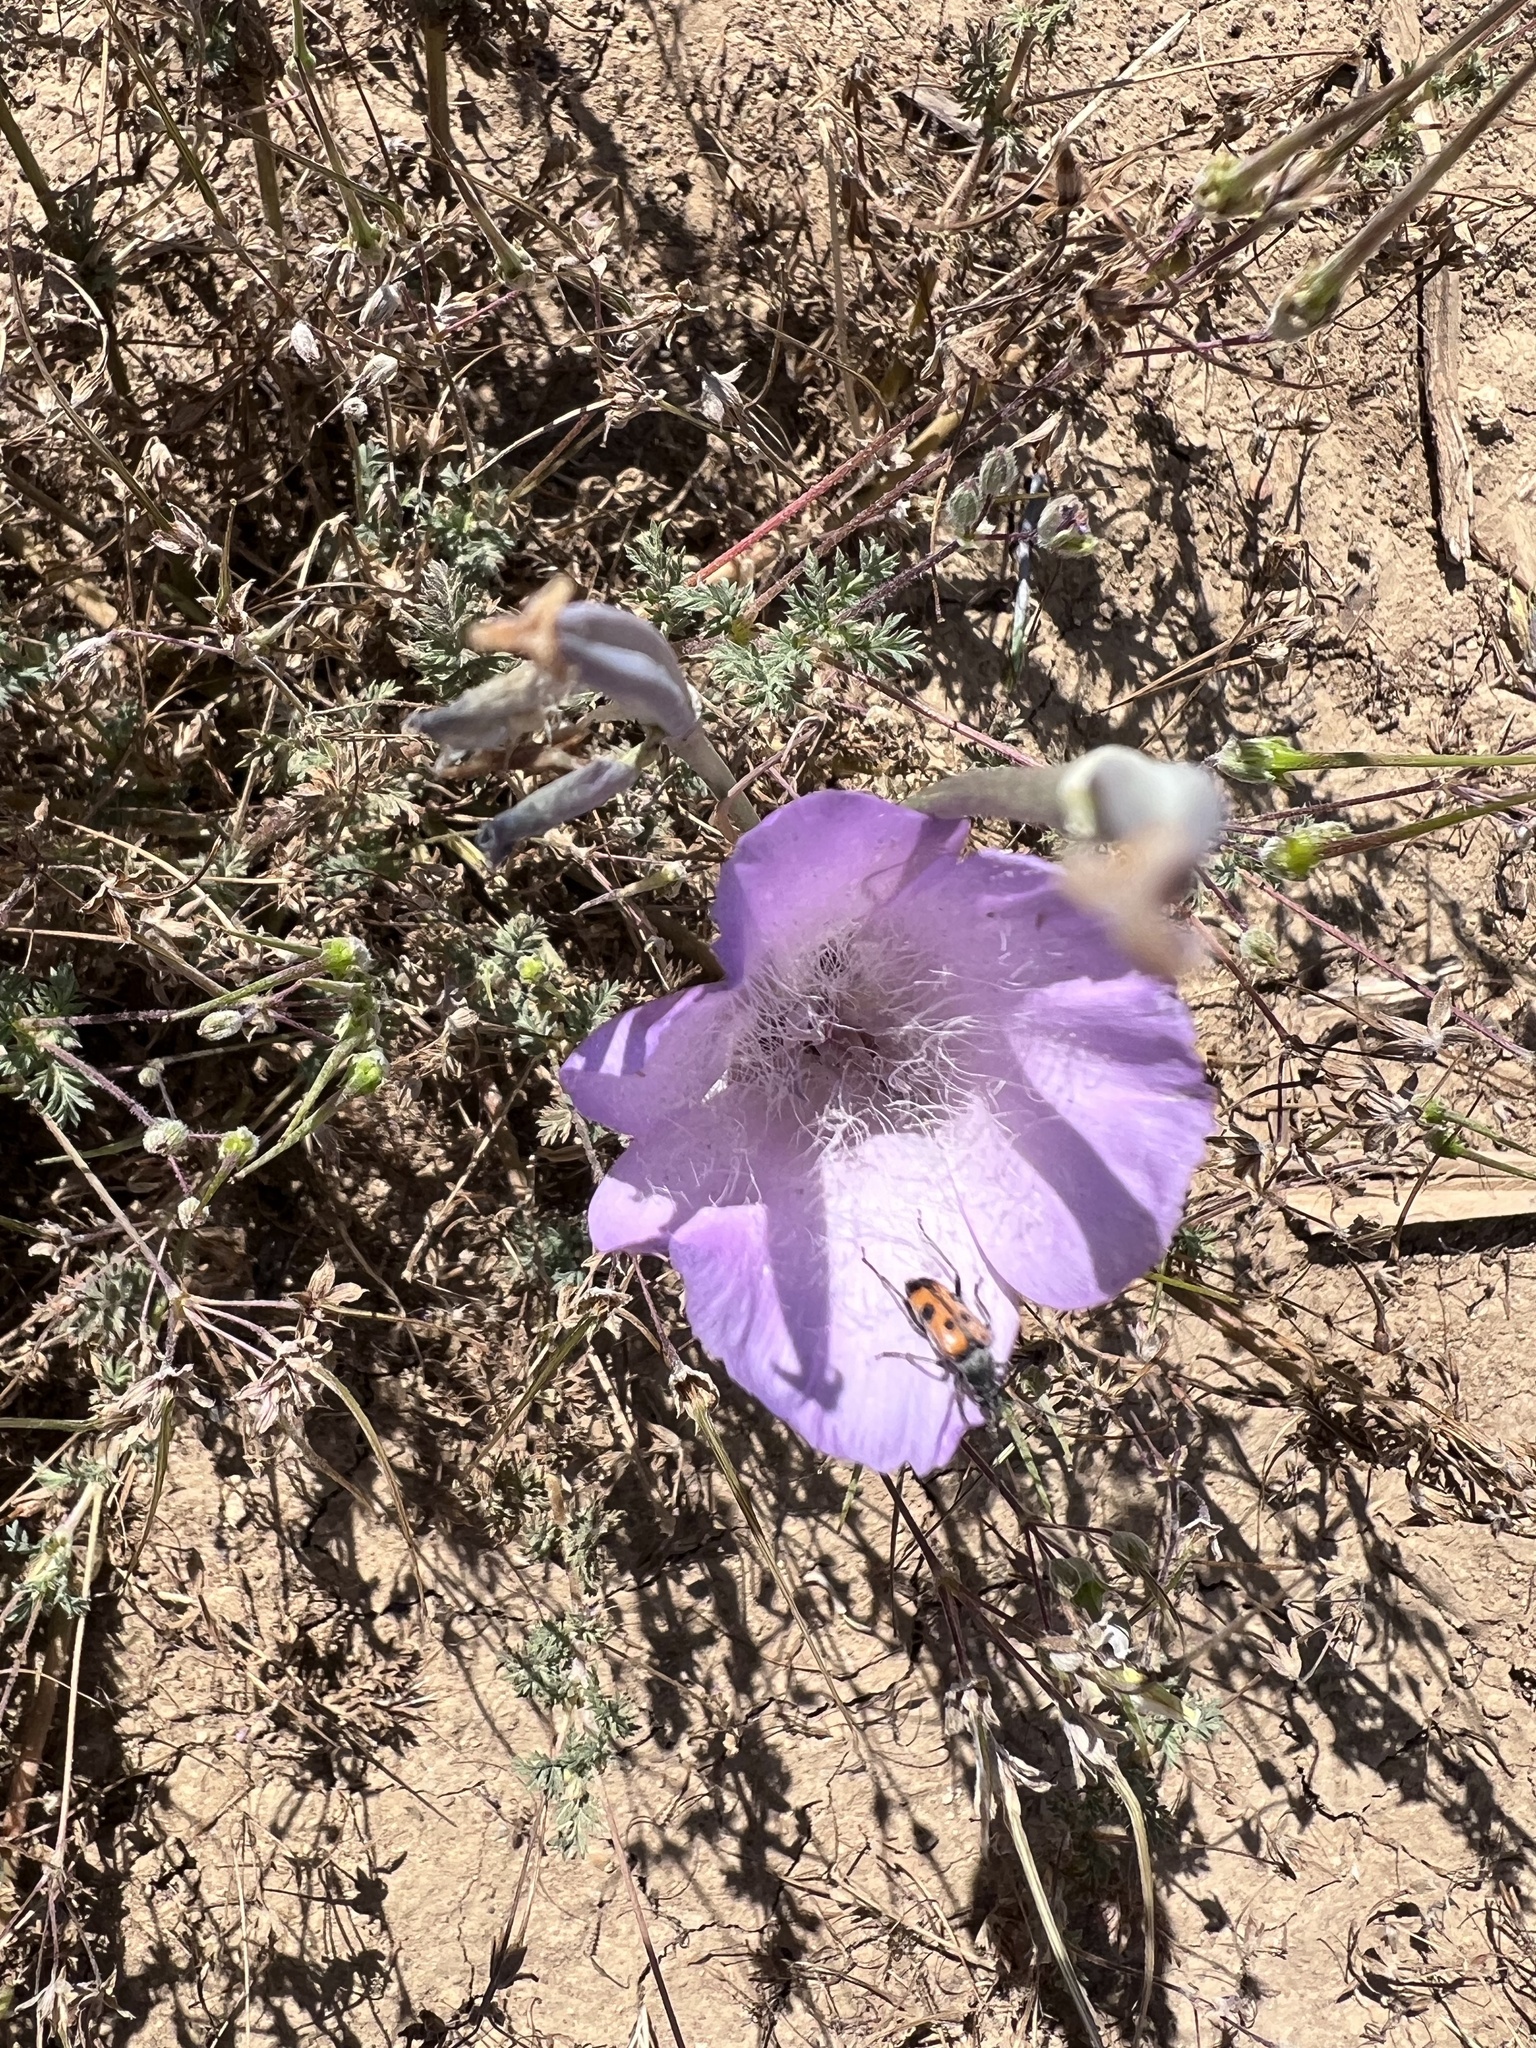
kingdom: Plantae
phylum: Tracheophyta
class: Liliopsida
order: Liliales
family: Liliaceae
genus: Calochortus
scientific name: Calochortus splendens
